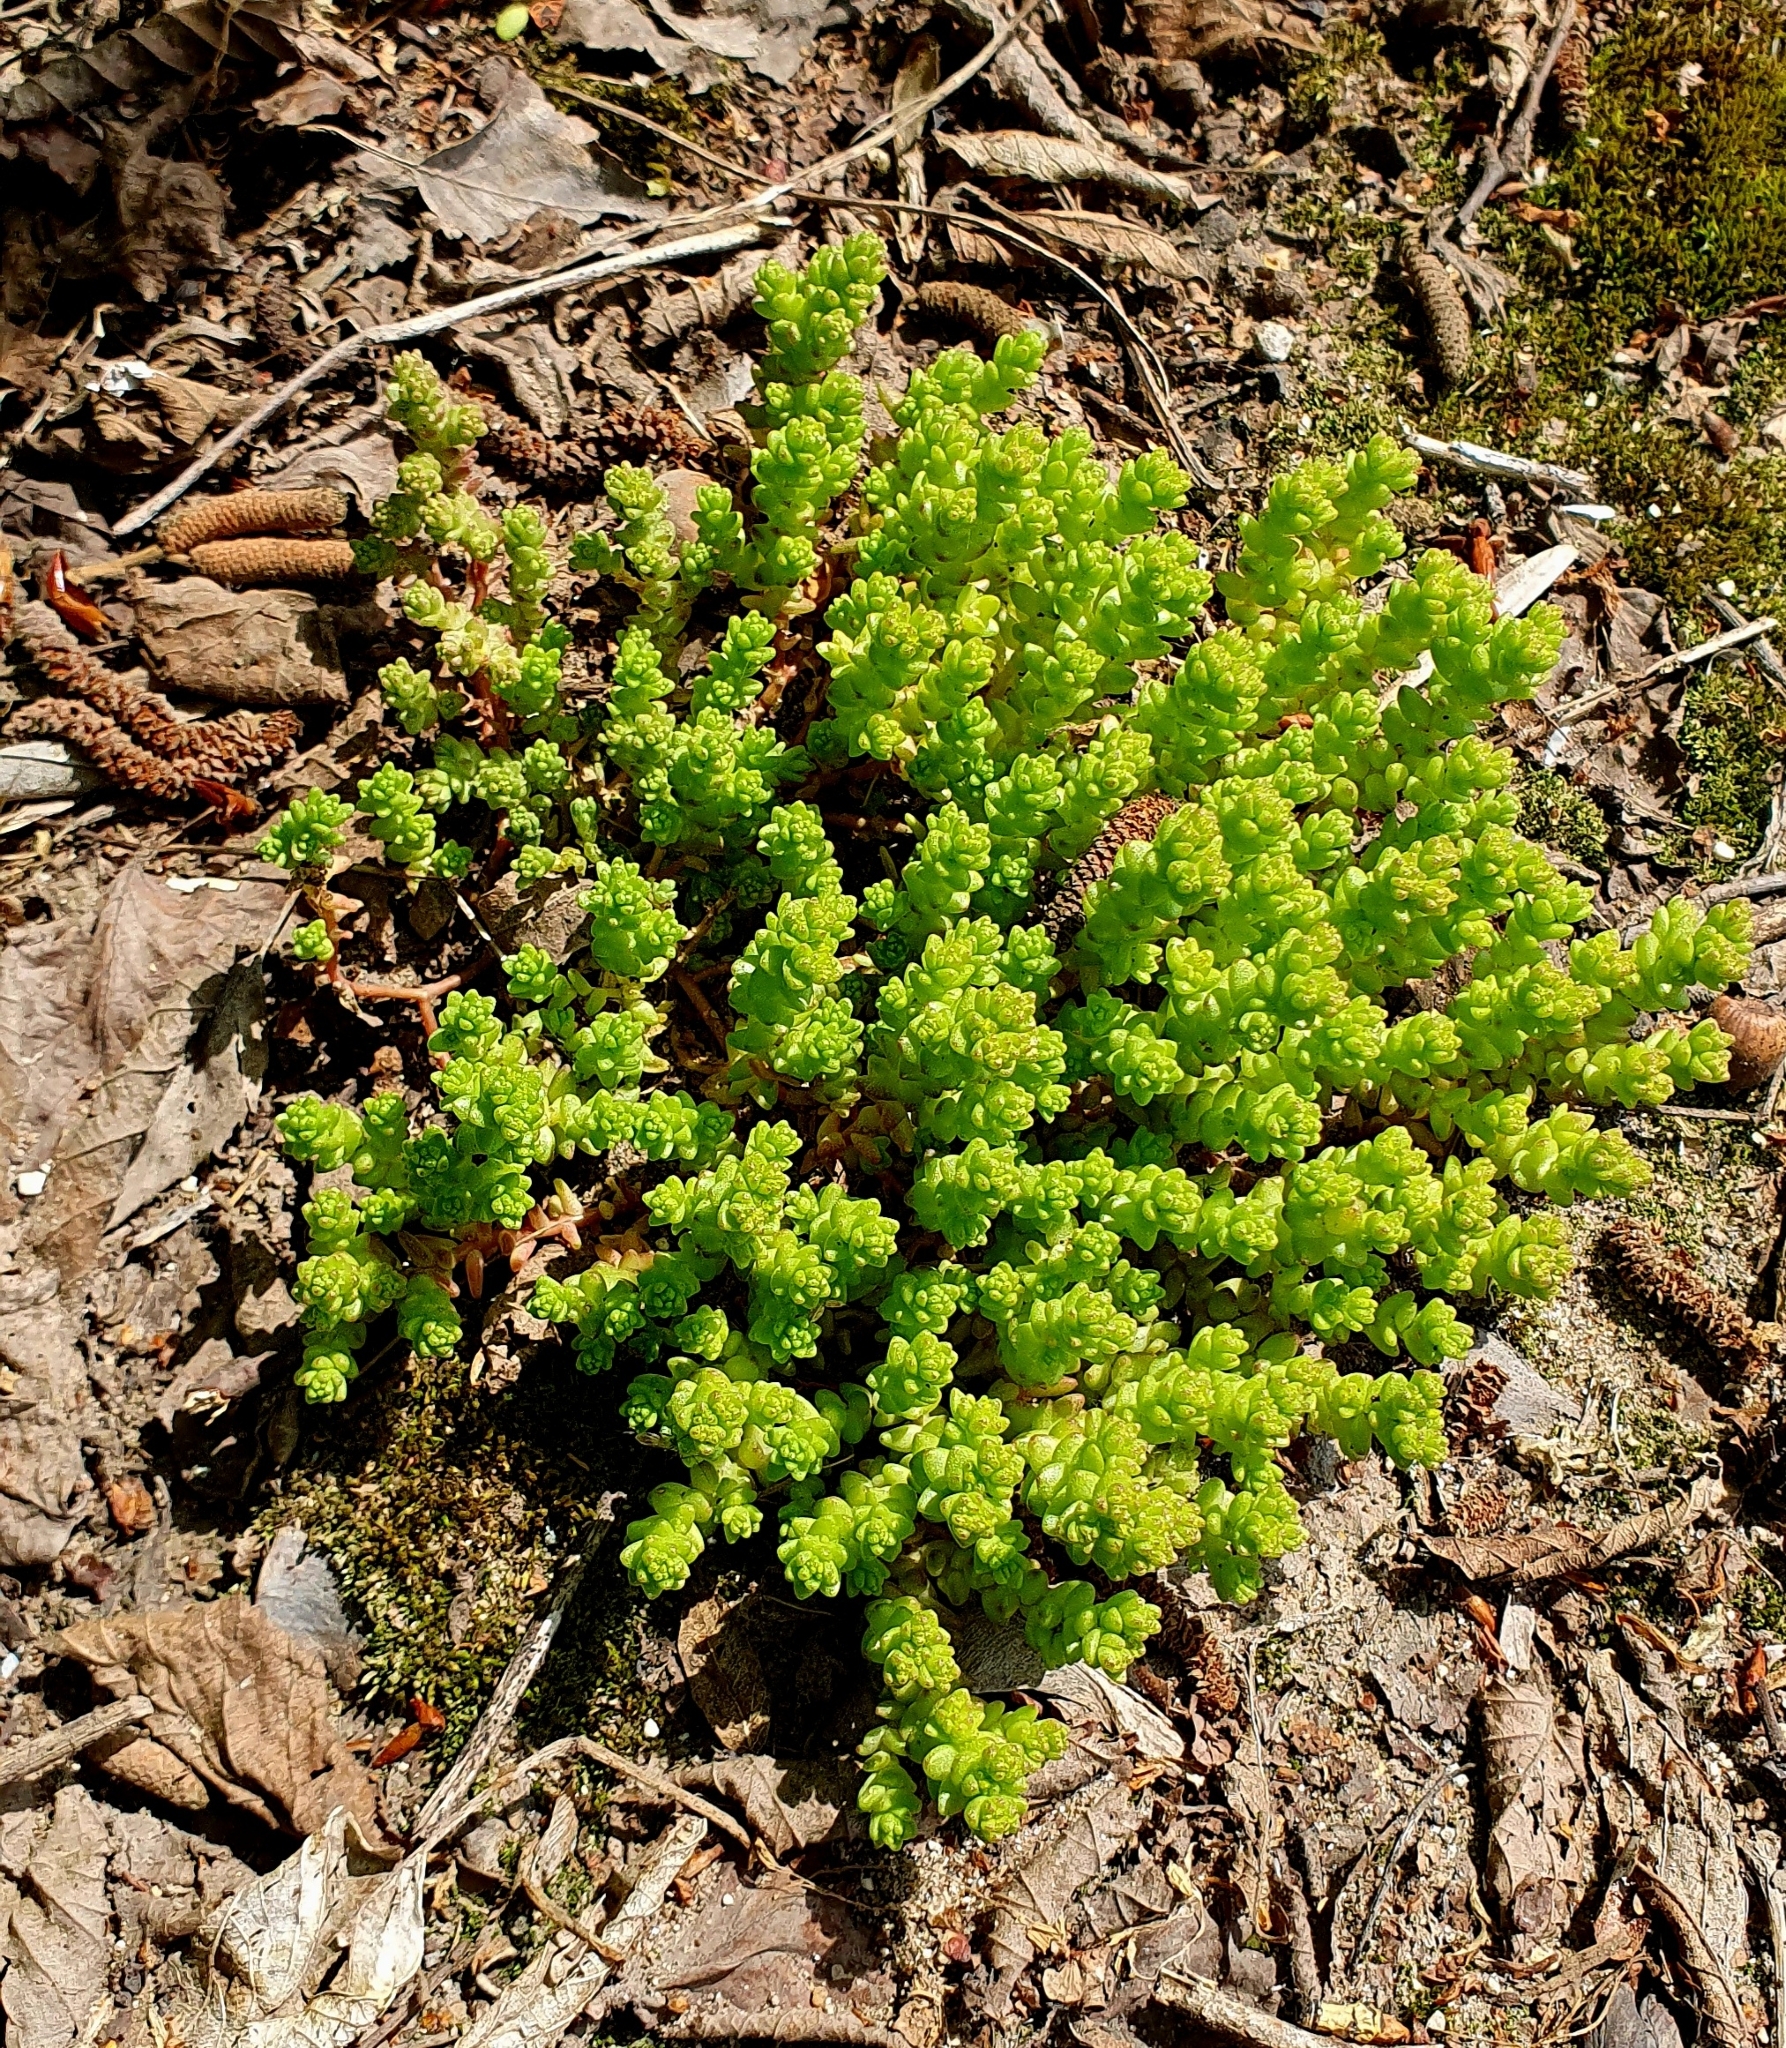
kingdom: Plantae
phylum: Tracheophyta
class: Magnoliopsida
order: Saxifragales
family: Crassulaceae
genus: Sedum
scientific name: Sedum acre
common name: Biting stonecrop
